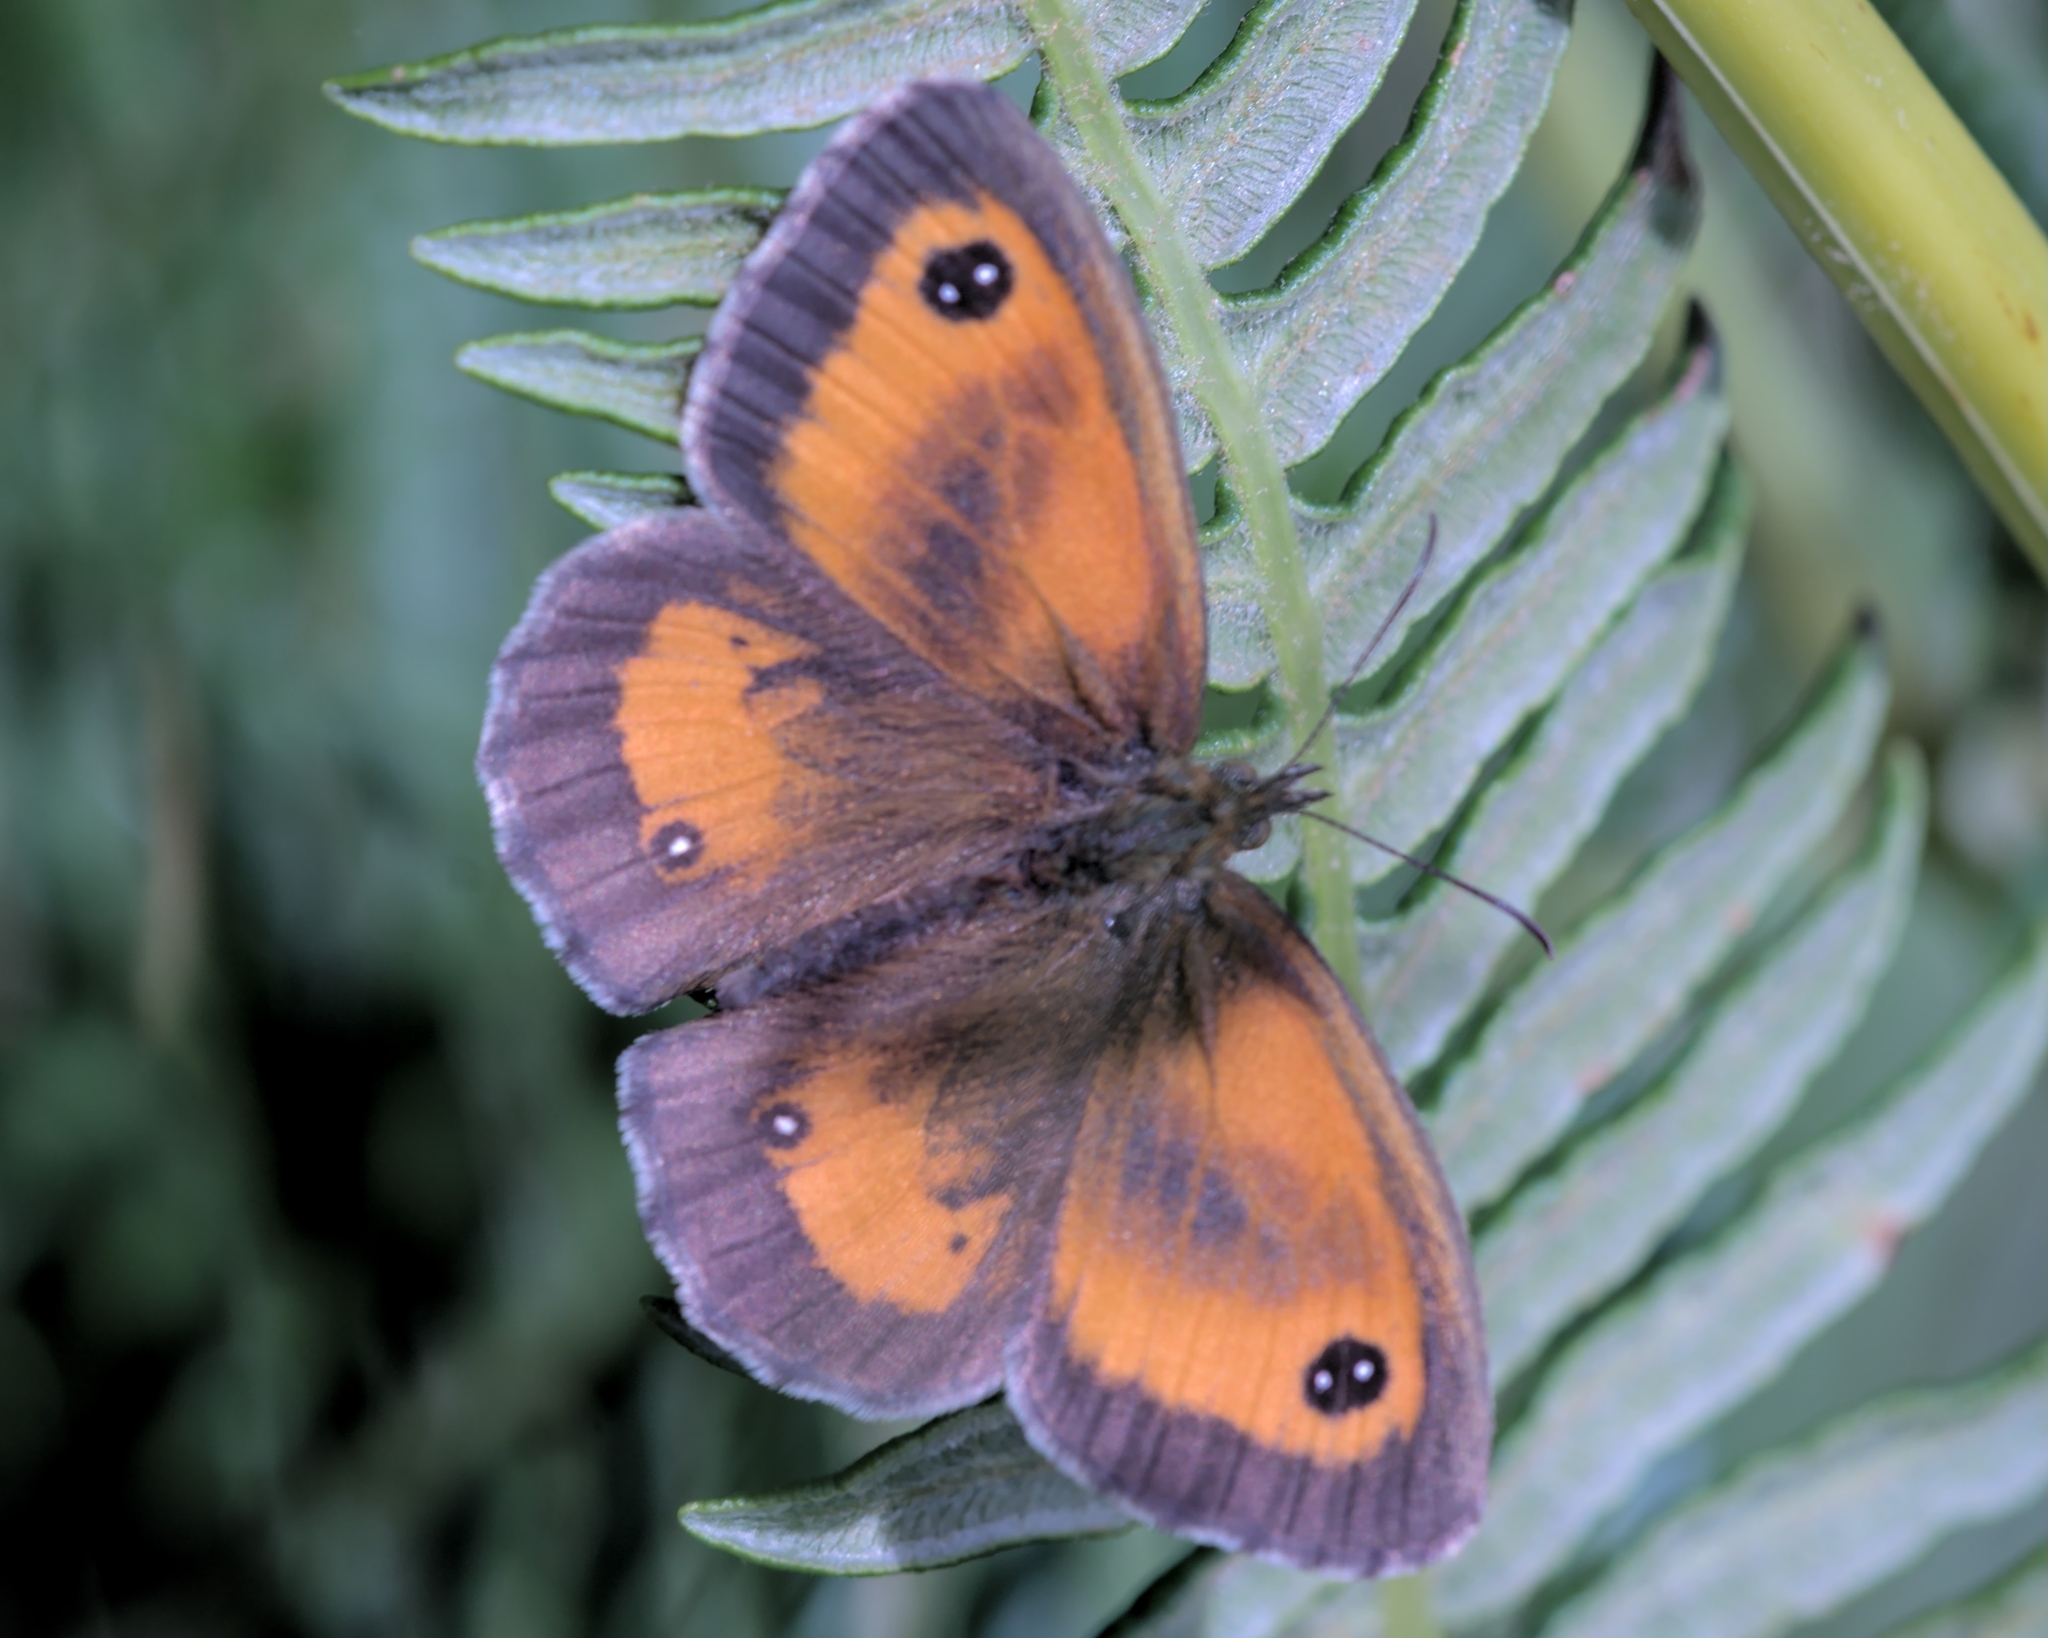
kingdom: Animalia
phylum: Arthropoda
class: Insecta
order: Lepidoptera
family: Nymphalidae
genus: Pyronia
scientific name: Pyronia tithonus
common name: Gatekeeper
